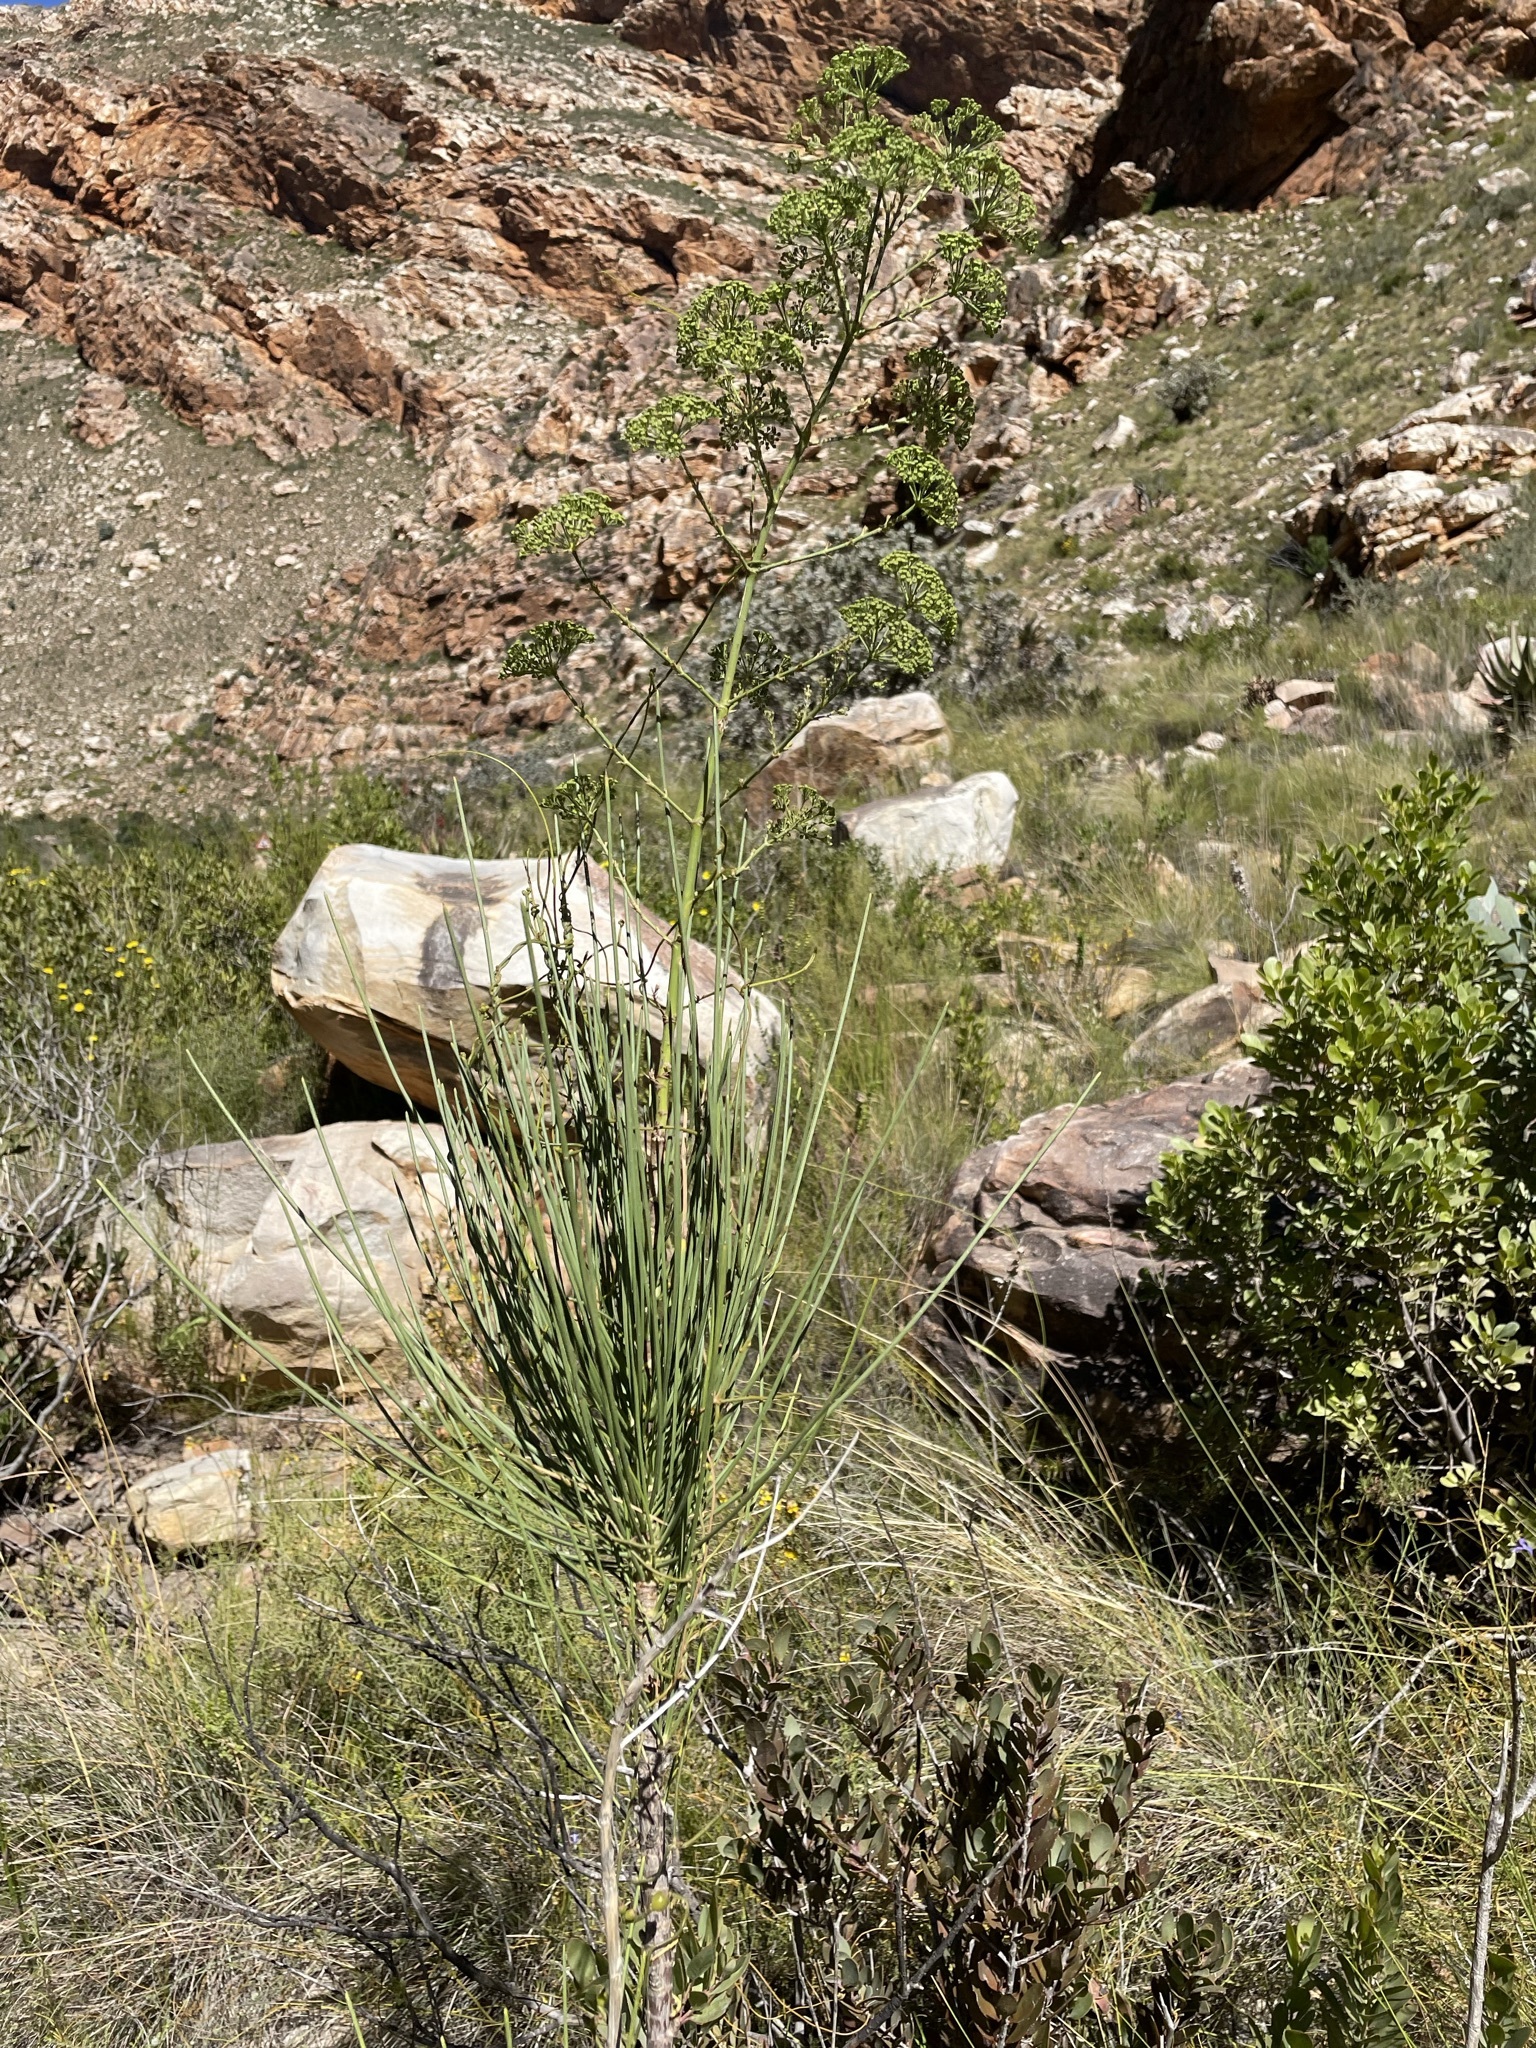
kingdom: Plantae
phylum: Tracheophyta
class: Magnoliopsida
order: Apiales
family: Apiaceae
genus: Anginon
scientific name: Anginon difforme
